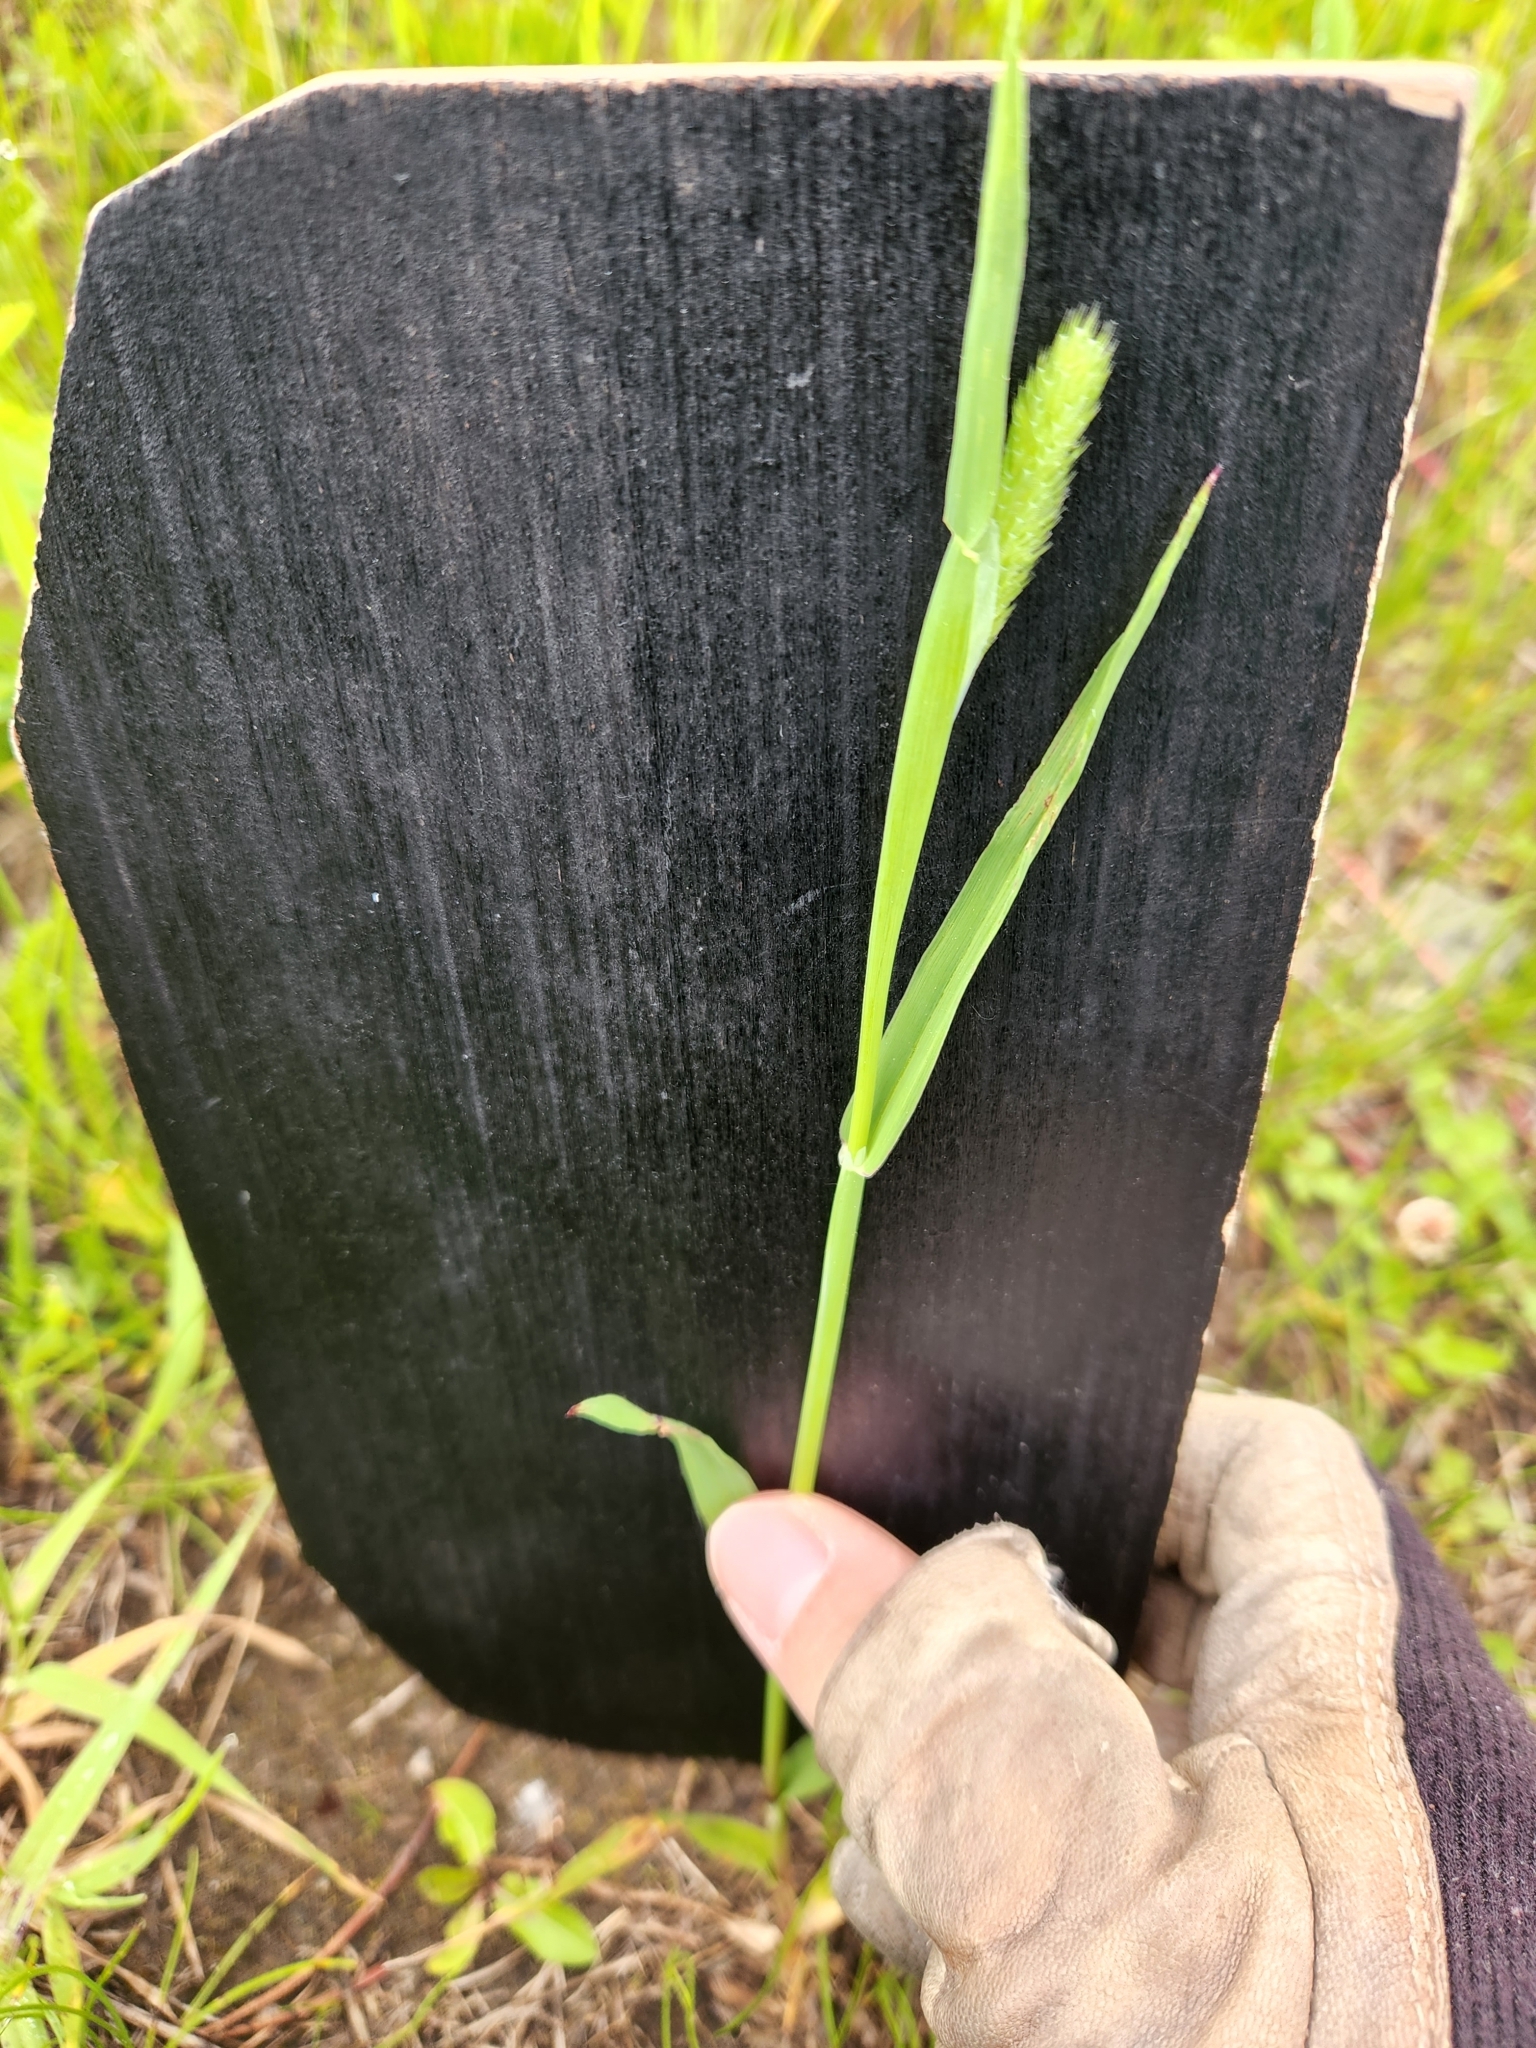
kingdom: Plantae
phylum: Tracheophyta
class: Liliopsida
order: Poales
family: Poaceae
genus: Phleum
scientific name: Phleum pratense
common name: Timothy grass
